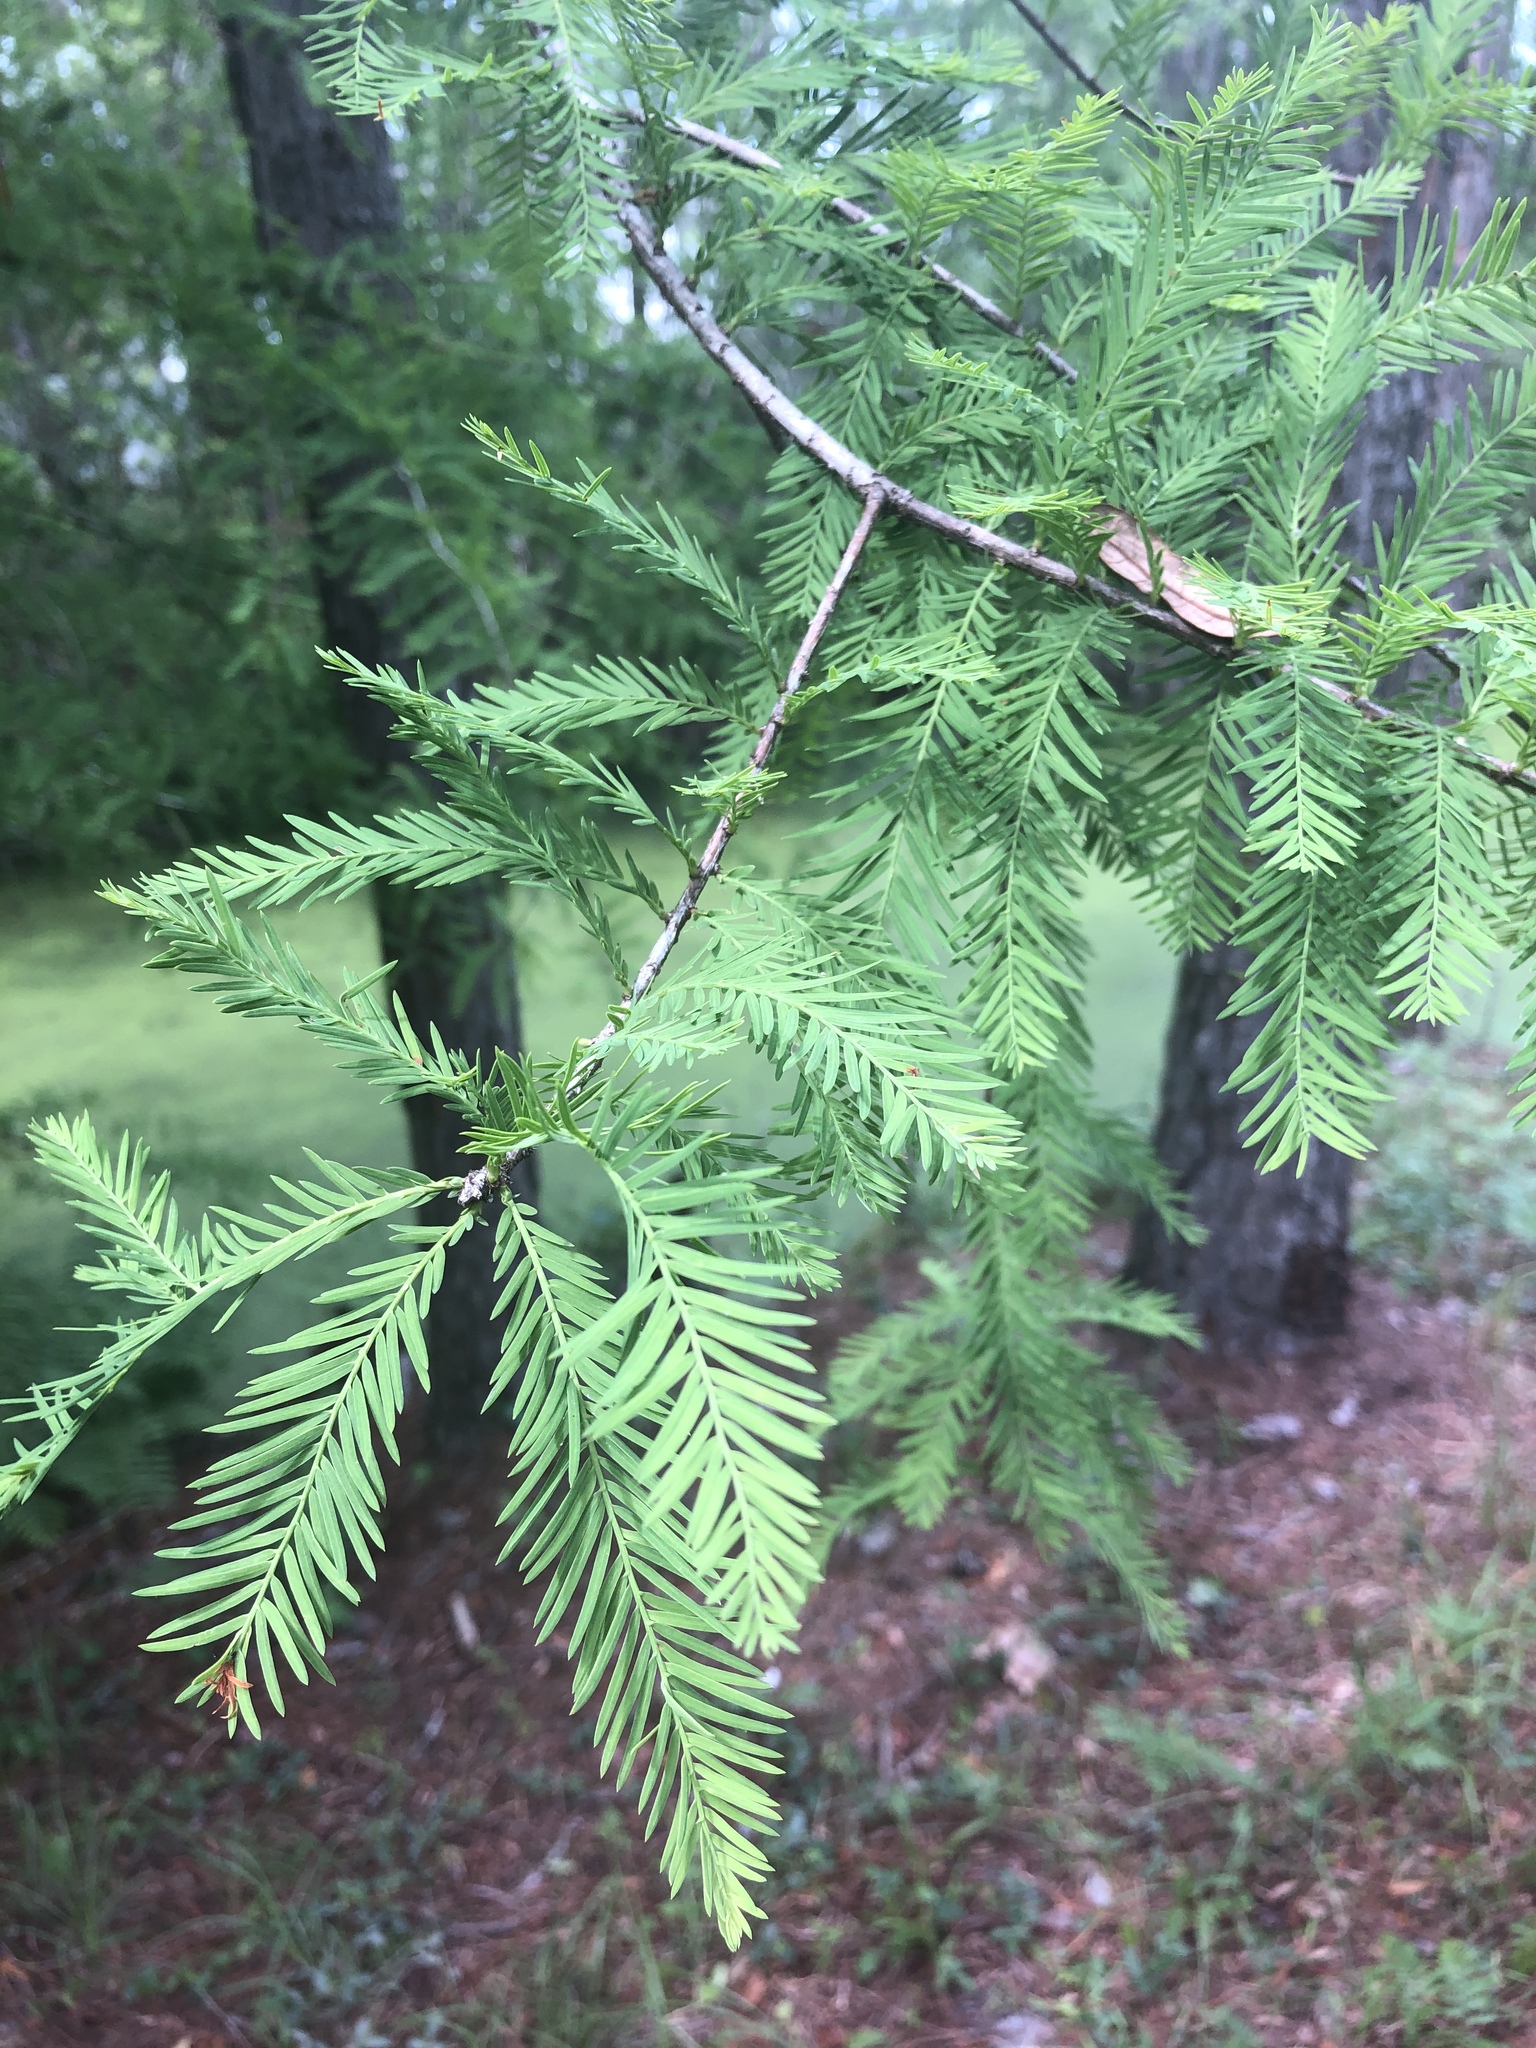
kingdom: Plantae
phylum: Tracheophyta
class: Pinopsida
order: Pinales
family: Cupressaceae
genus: Taxodium
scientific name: Taxodium distichum
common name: Bald cypress
